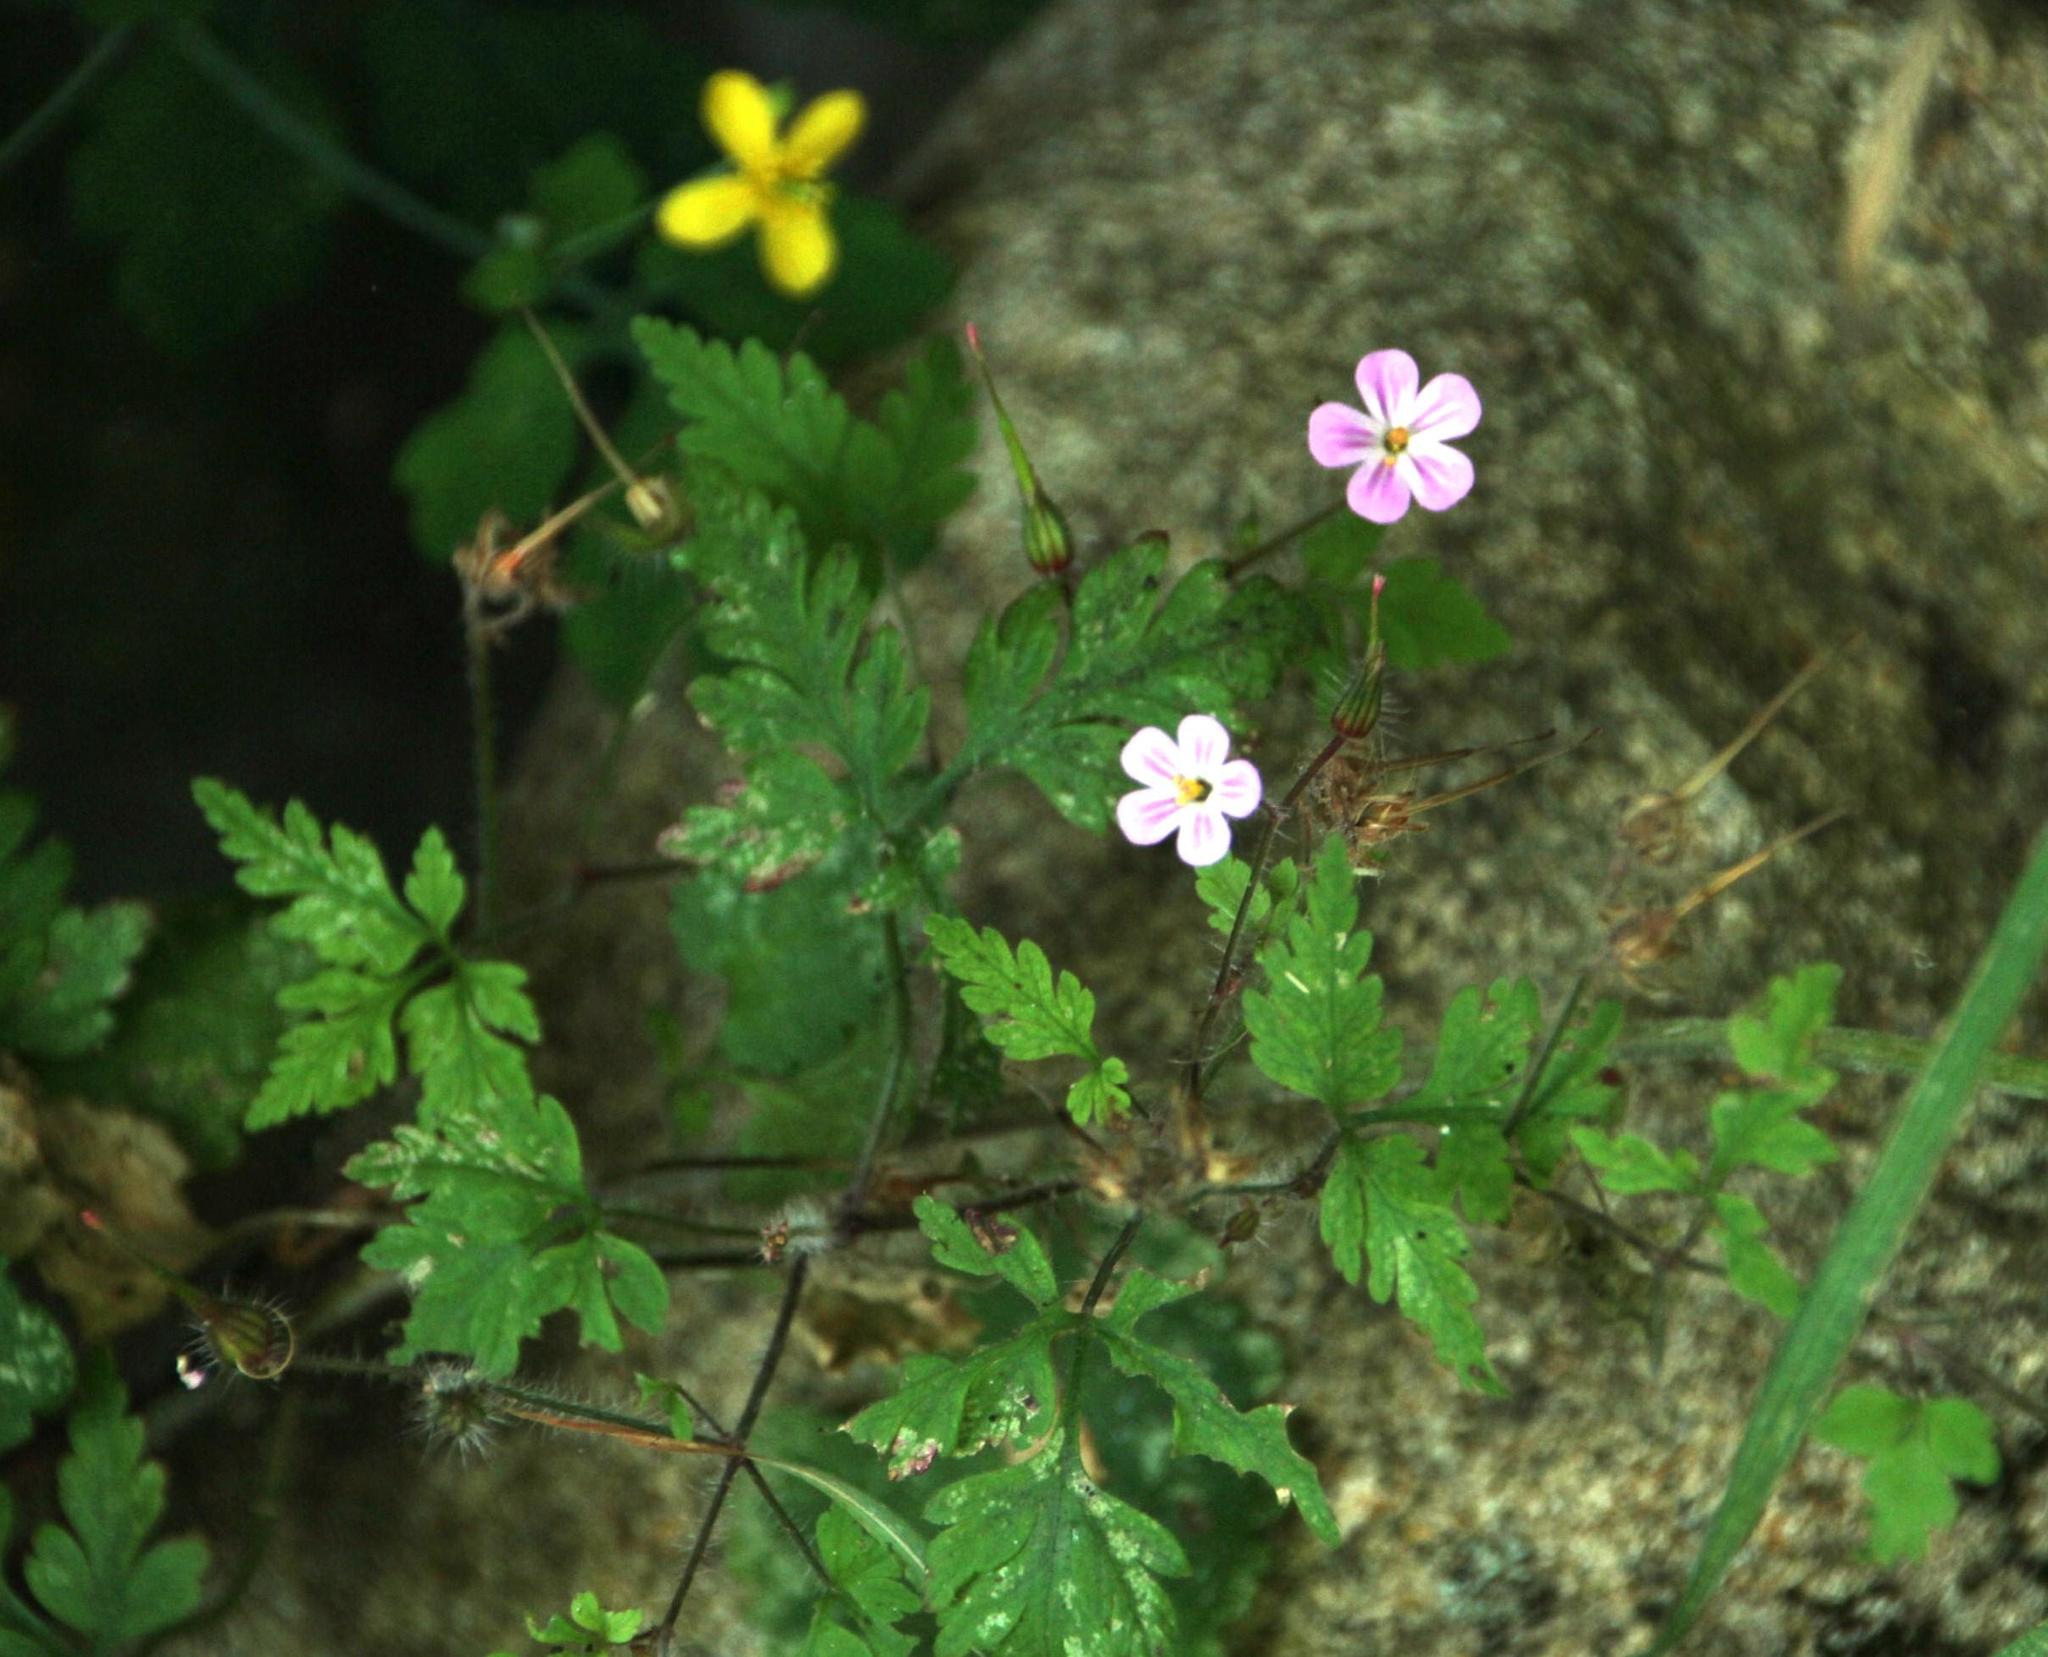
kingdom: Plantae
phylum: Tracheophyta
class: Magnoliopsida
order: Geraniales
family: Geraniaceae
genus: Geranium
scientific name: Geranium robertianum
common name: Herb-robert
